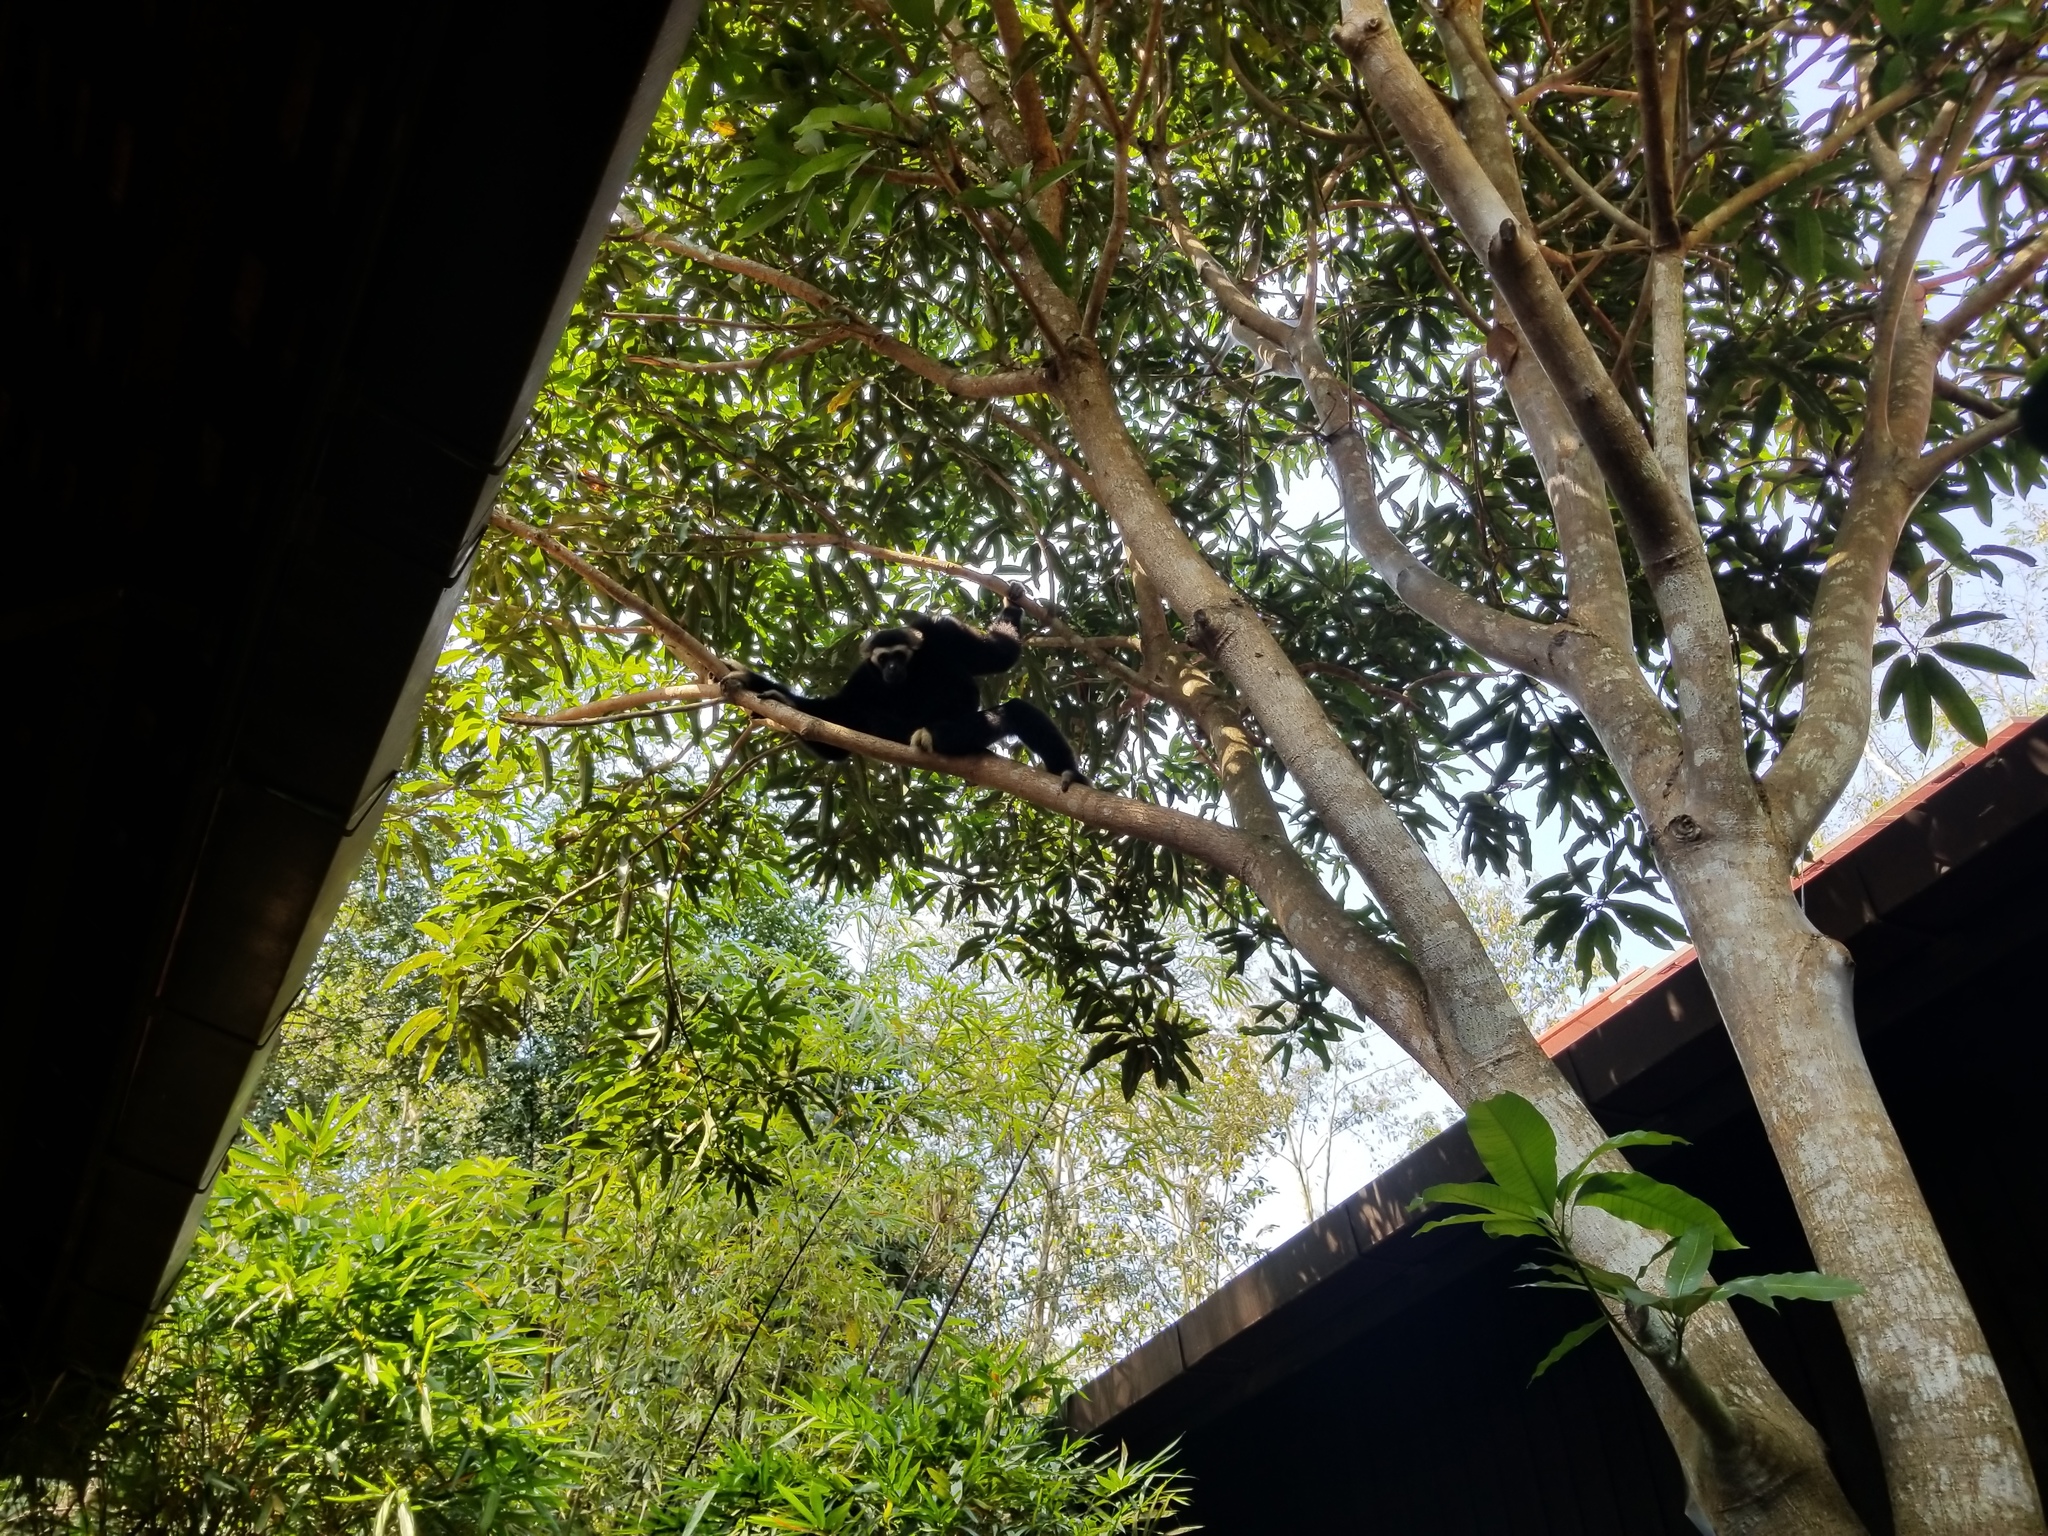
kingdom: Animalia
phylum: Chordata
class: Mammalia
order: Primates
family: Hylobatidae
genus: Hylobates
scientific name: Hylobates pileatus
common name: Pileated gibbon
